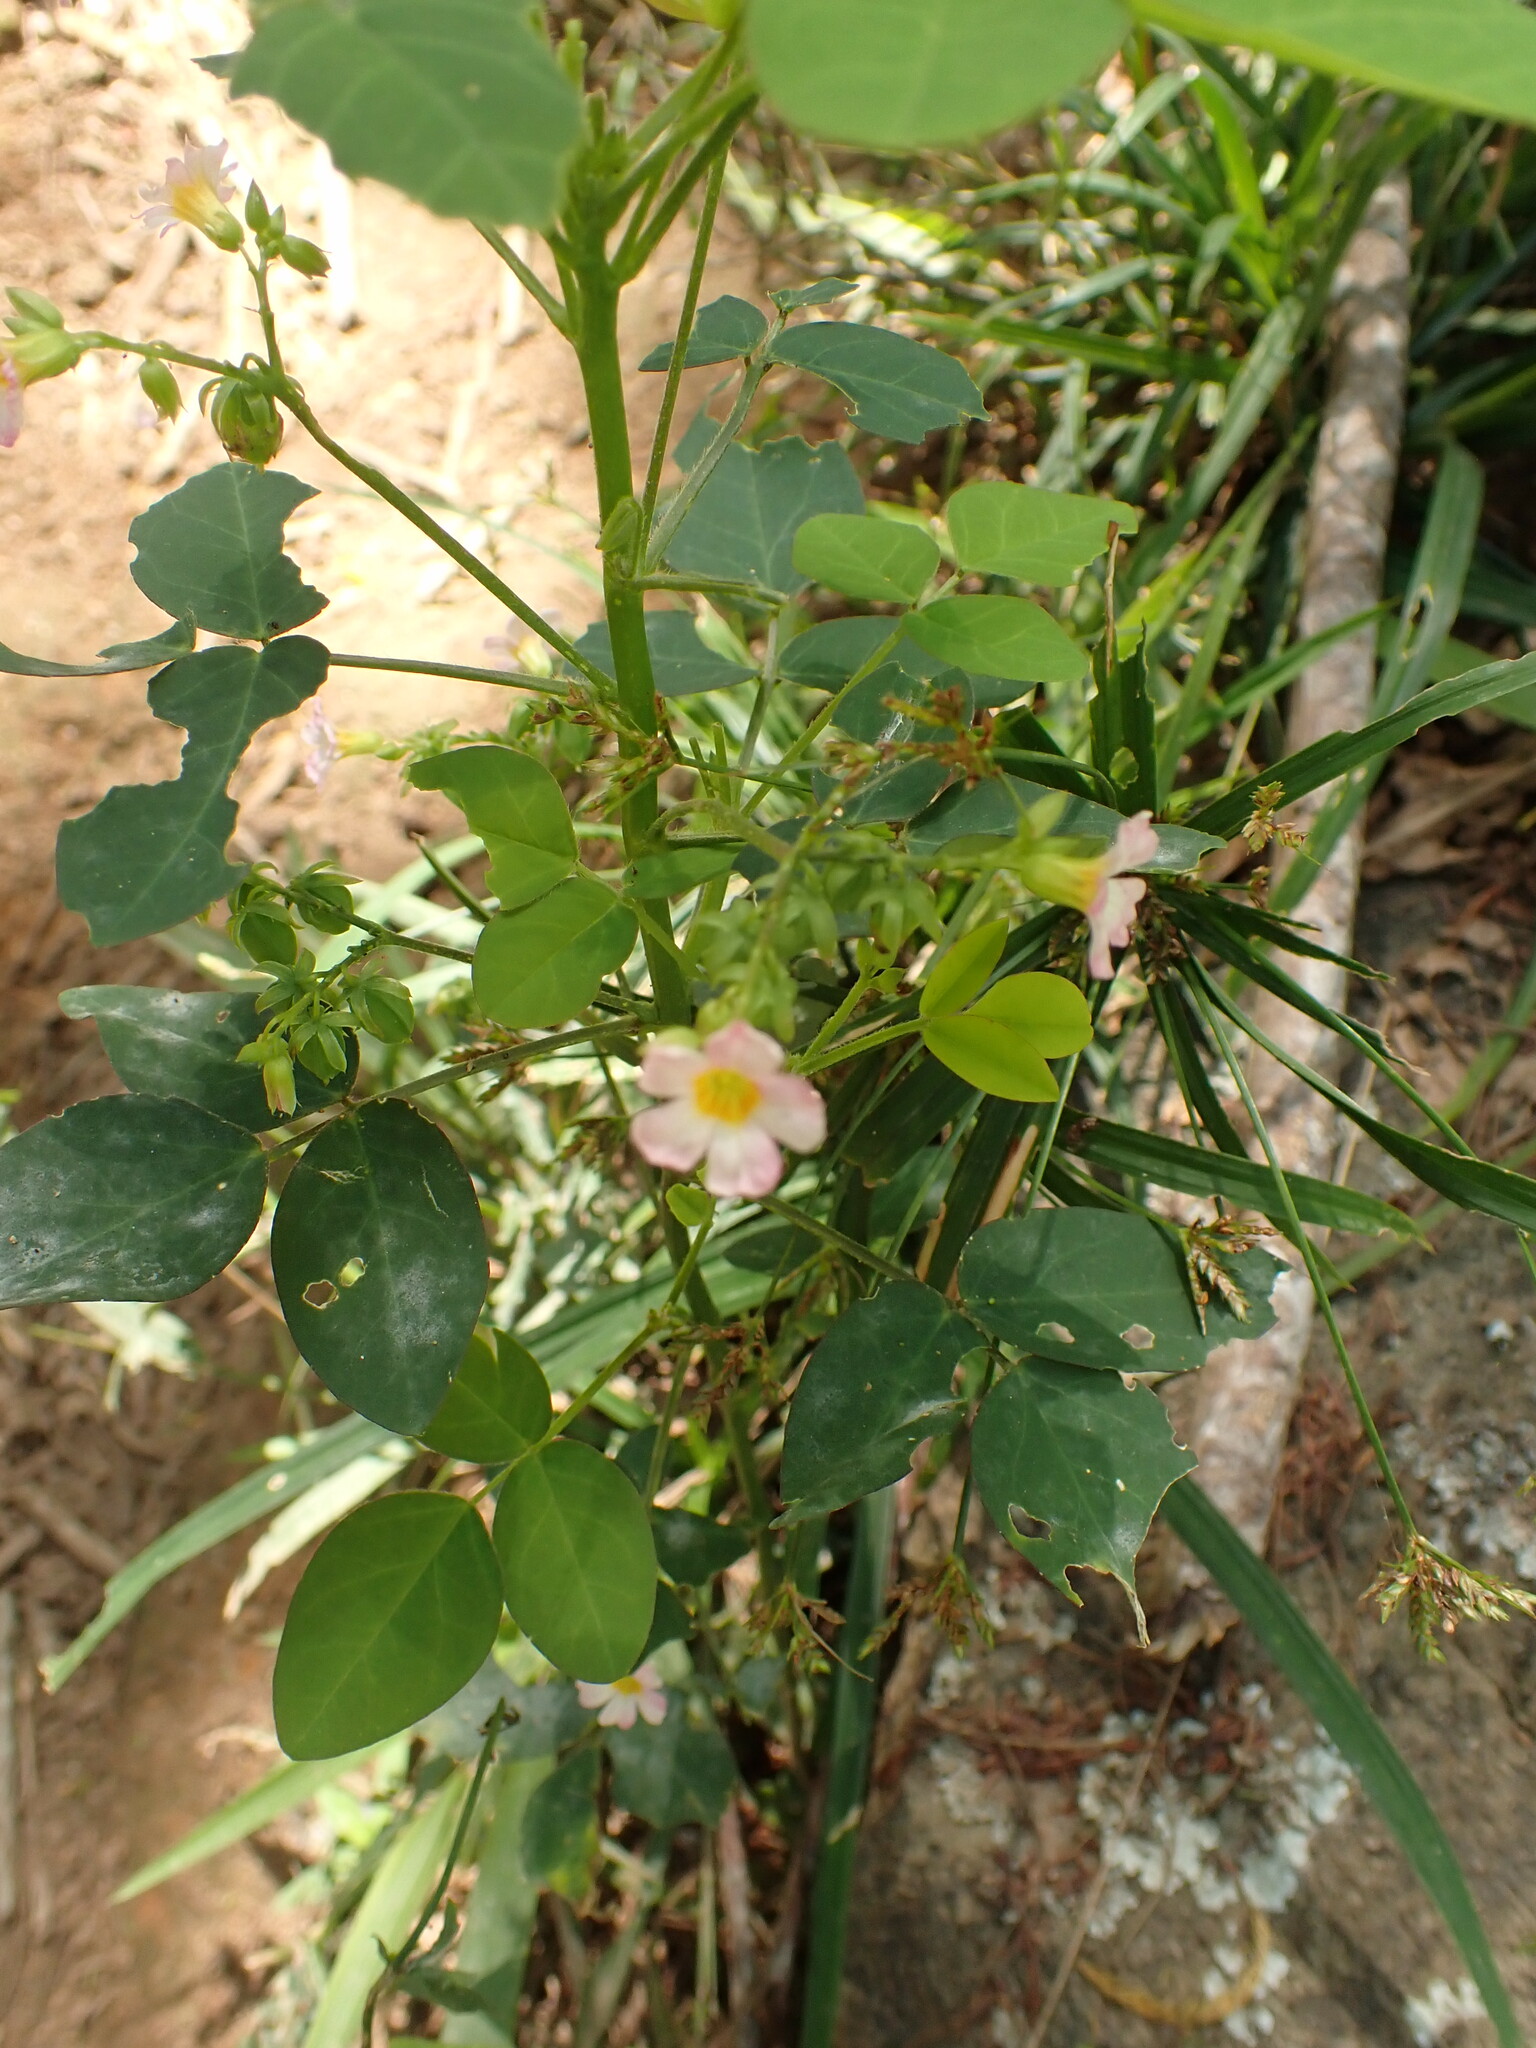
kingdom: Plantae
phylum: Tracheophyta
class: Magnoliopsida
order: Oxalidales
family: Oxalidaceae
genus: Oxalis
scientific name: Oxalis barrelieri
